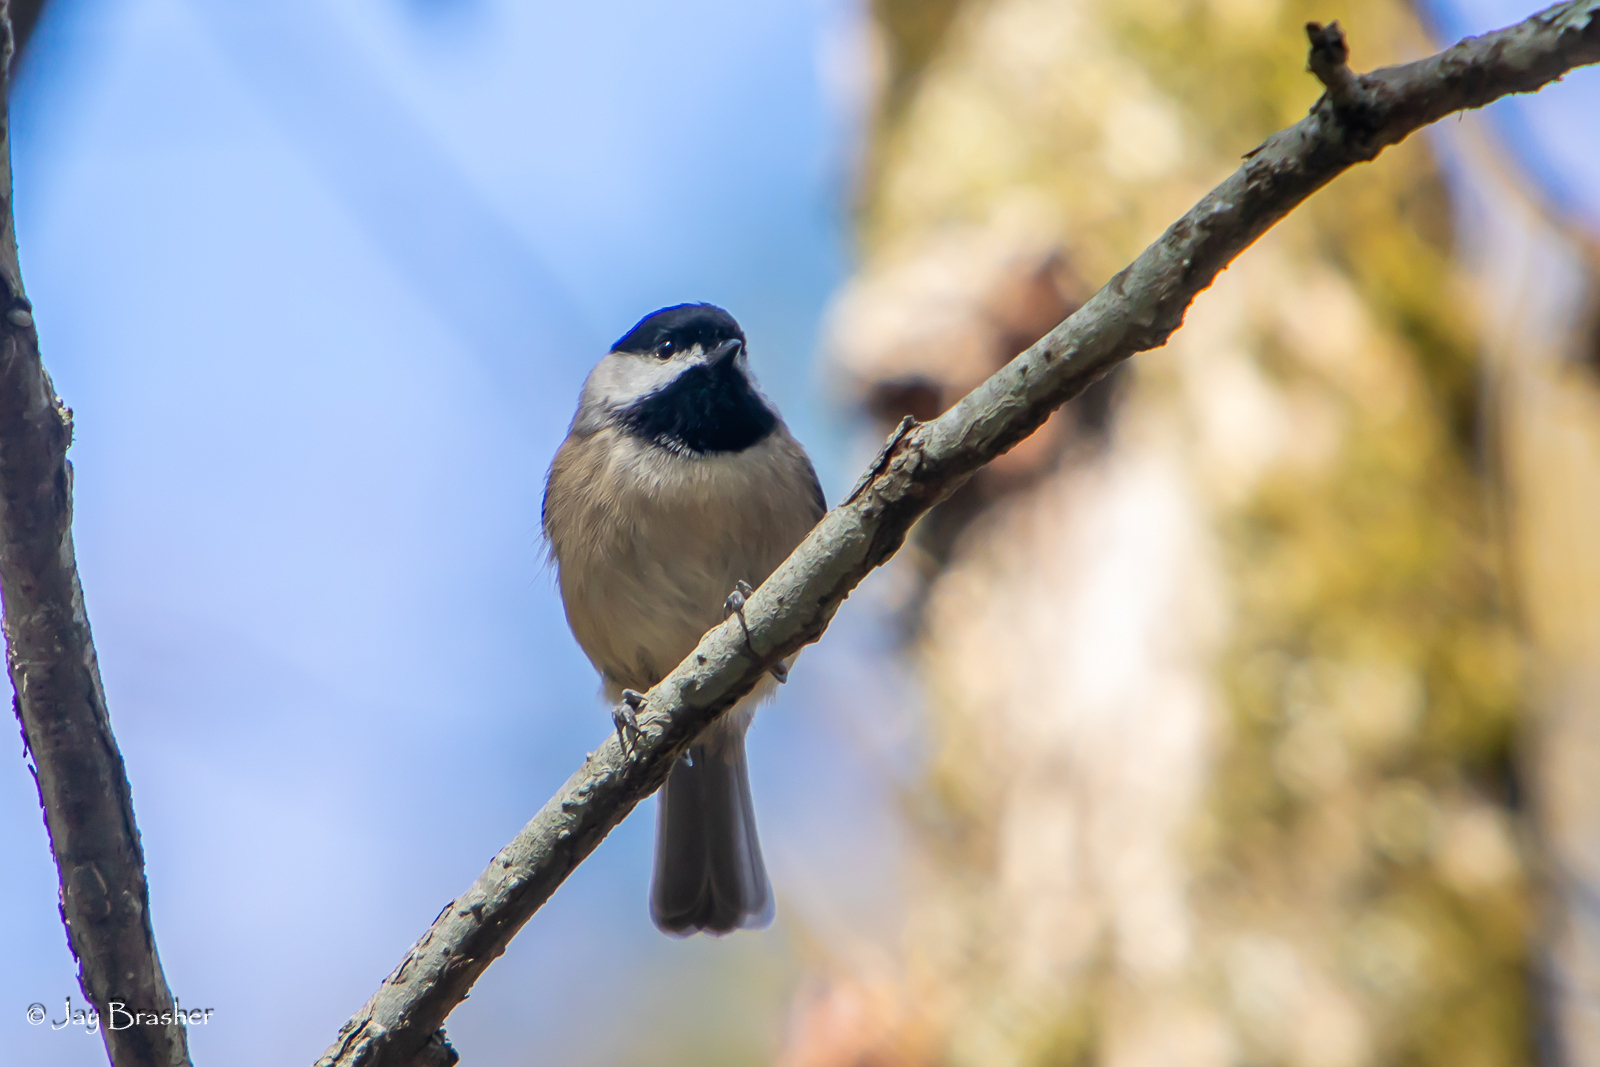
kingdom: Animalia
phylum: Chordata
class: Aves
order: Passeriformes
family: Paridae
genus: Poecile
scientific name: Poecile carolinensis
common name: Carolina chickadee
